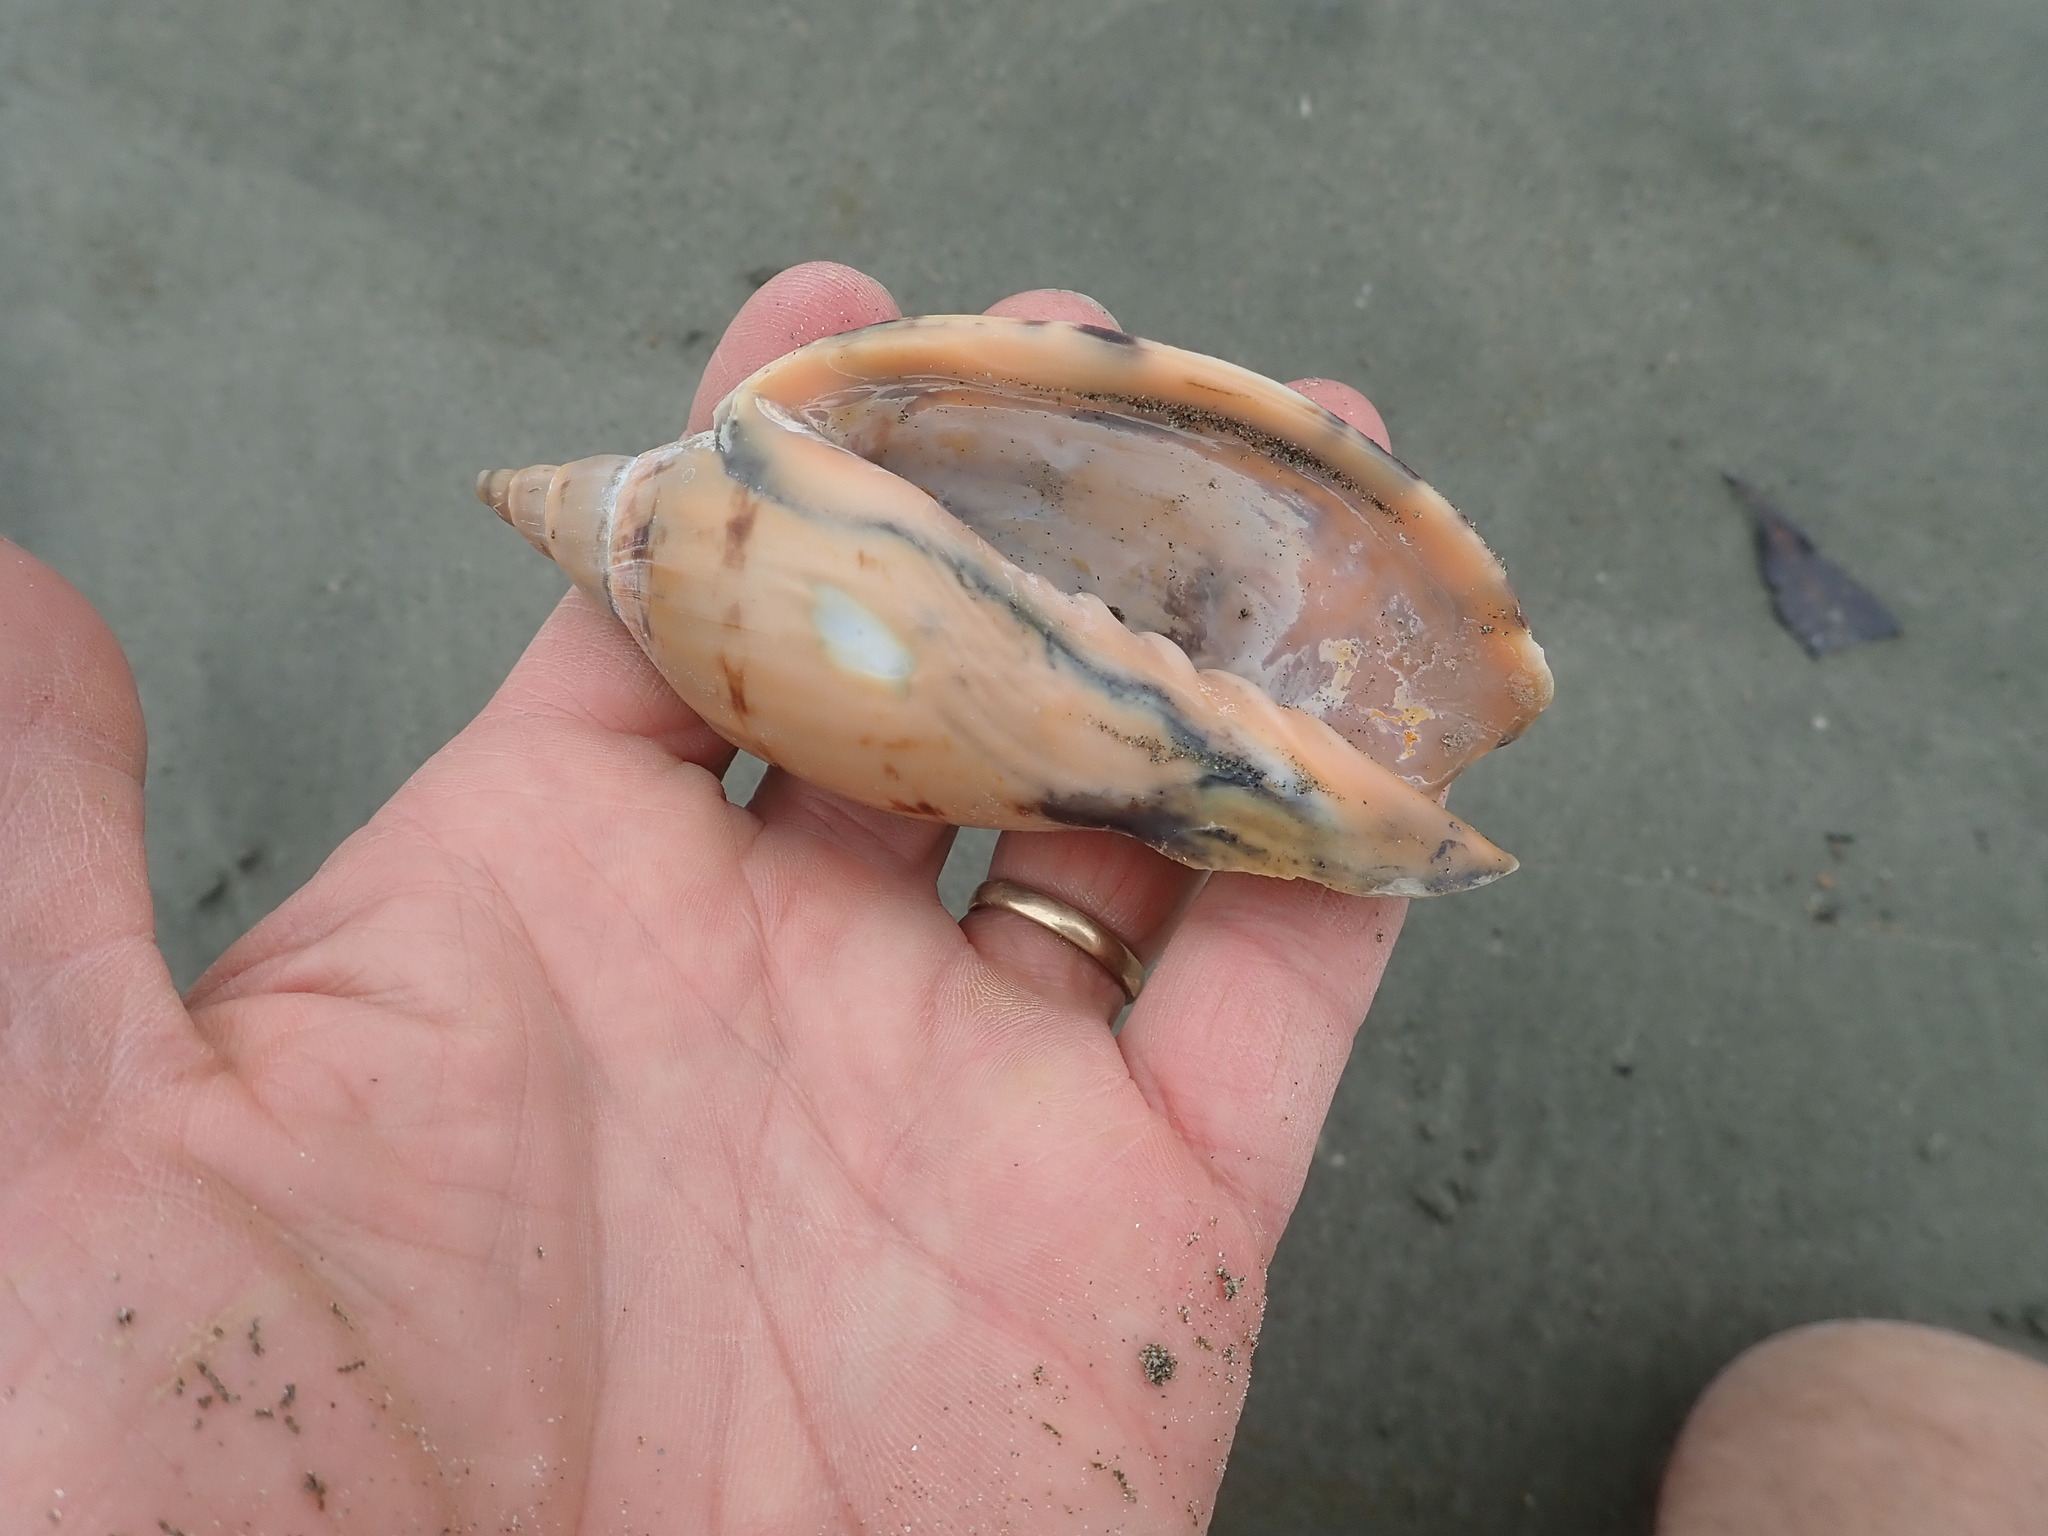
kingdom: Animalia
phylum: Mollusca
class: Gastropoda
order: Neogastropoda
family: Volutidae
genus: Alcithoe
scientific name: Alcithoe arabica
